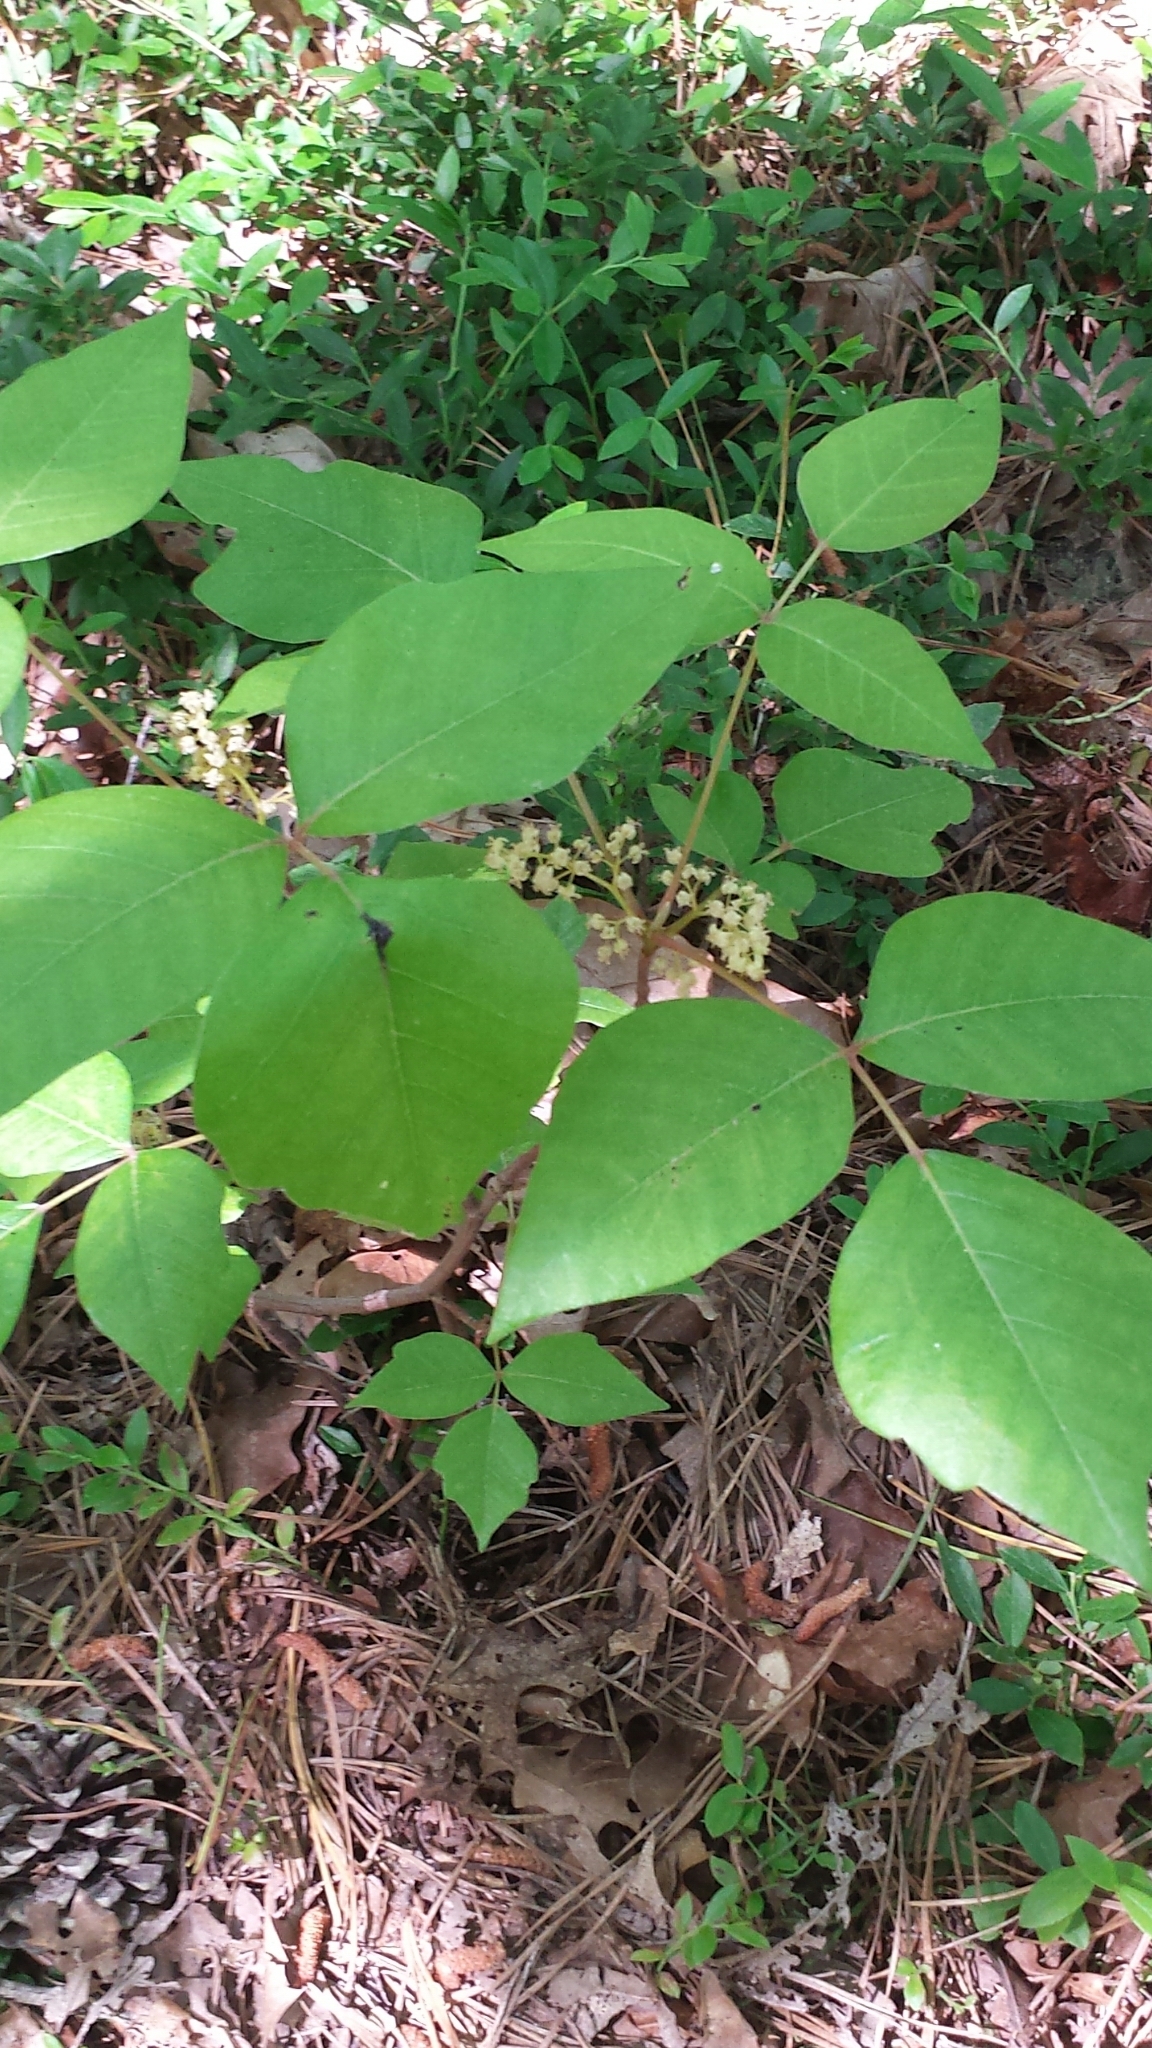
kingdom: Plantae
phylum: Tracheophyta
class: Magnoliopsida
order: Sapindales
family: Anacardiaceae
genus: Toxicodendron
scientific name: Toxicodendron radicans
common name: Poison ivy
